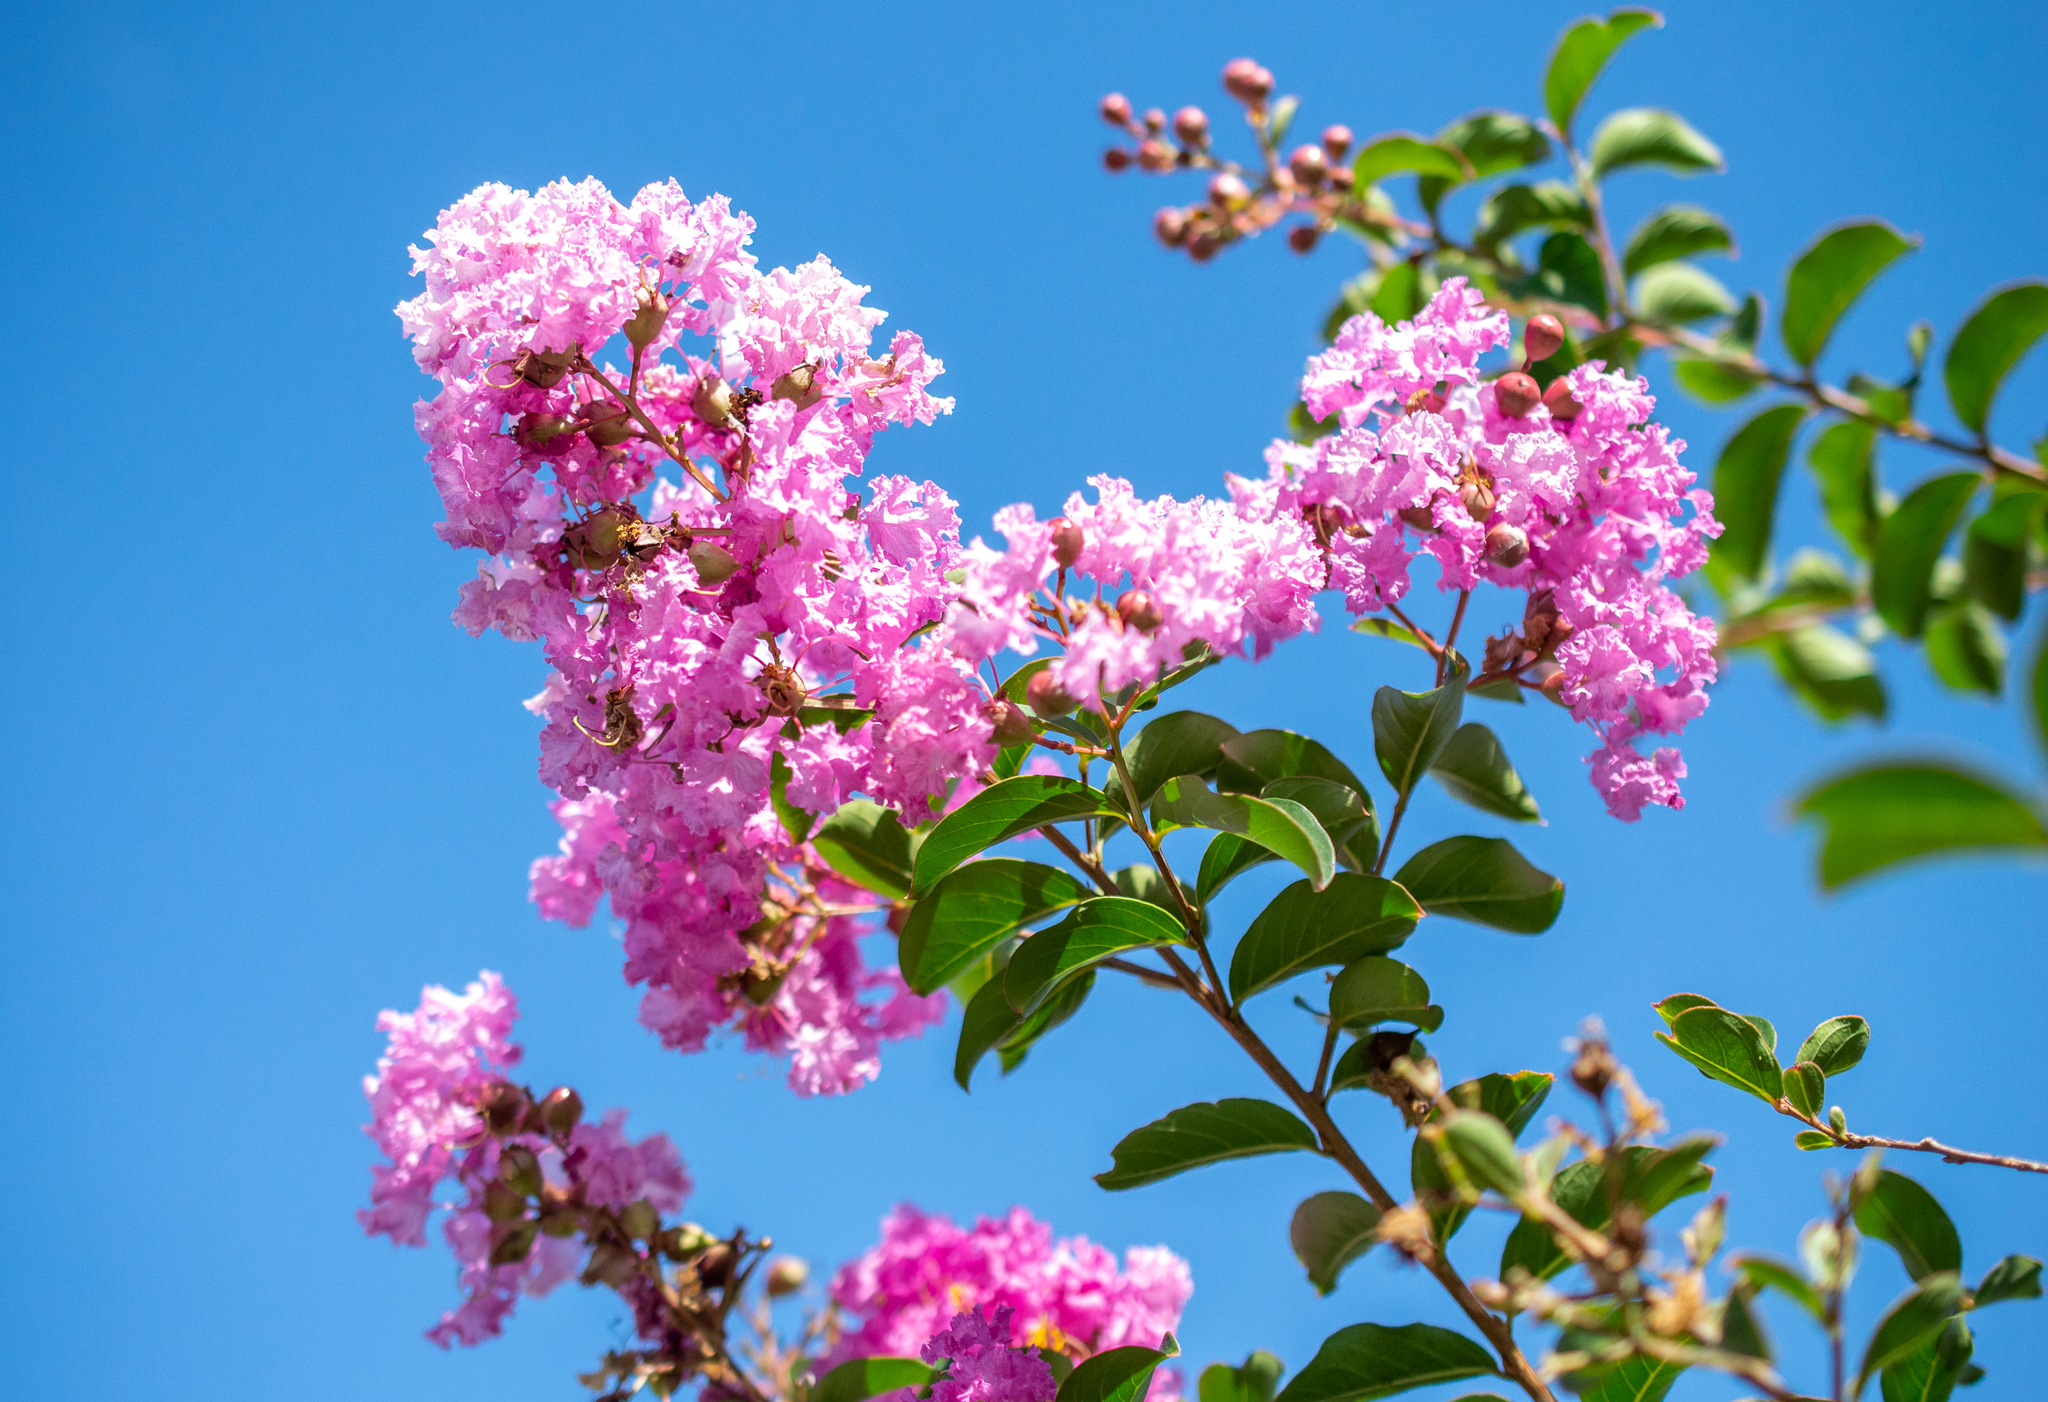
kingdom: Plantae
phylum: Tracheophyta
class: Magnoliopsida
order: Myrtales
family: Lythraceae
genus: Lagerstroemia
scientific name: Lagerstroemia indica
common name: Crape-myrtle
